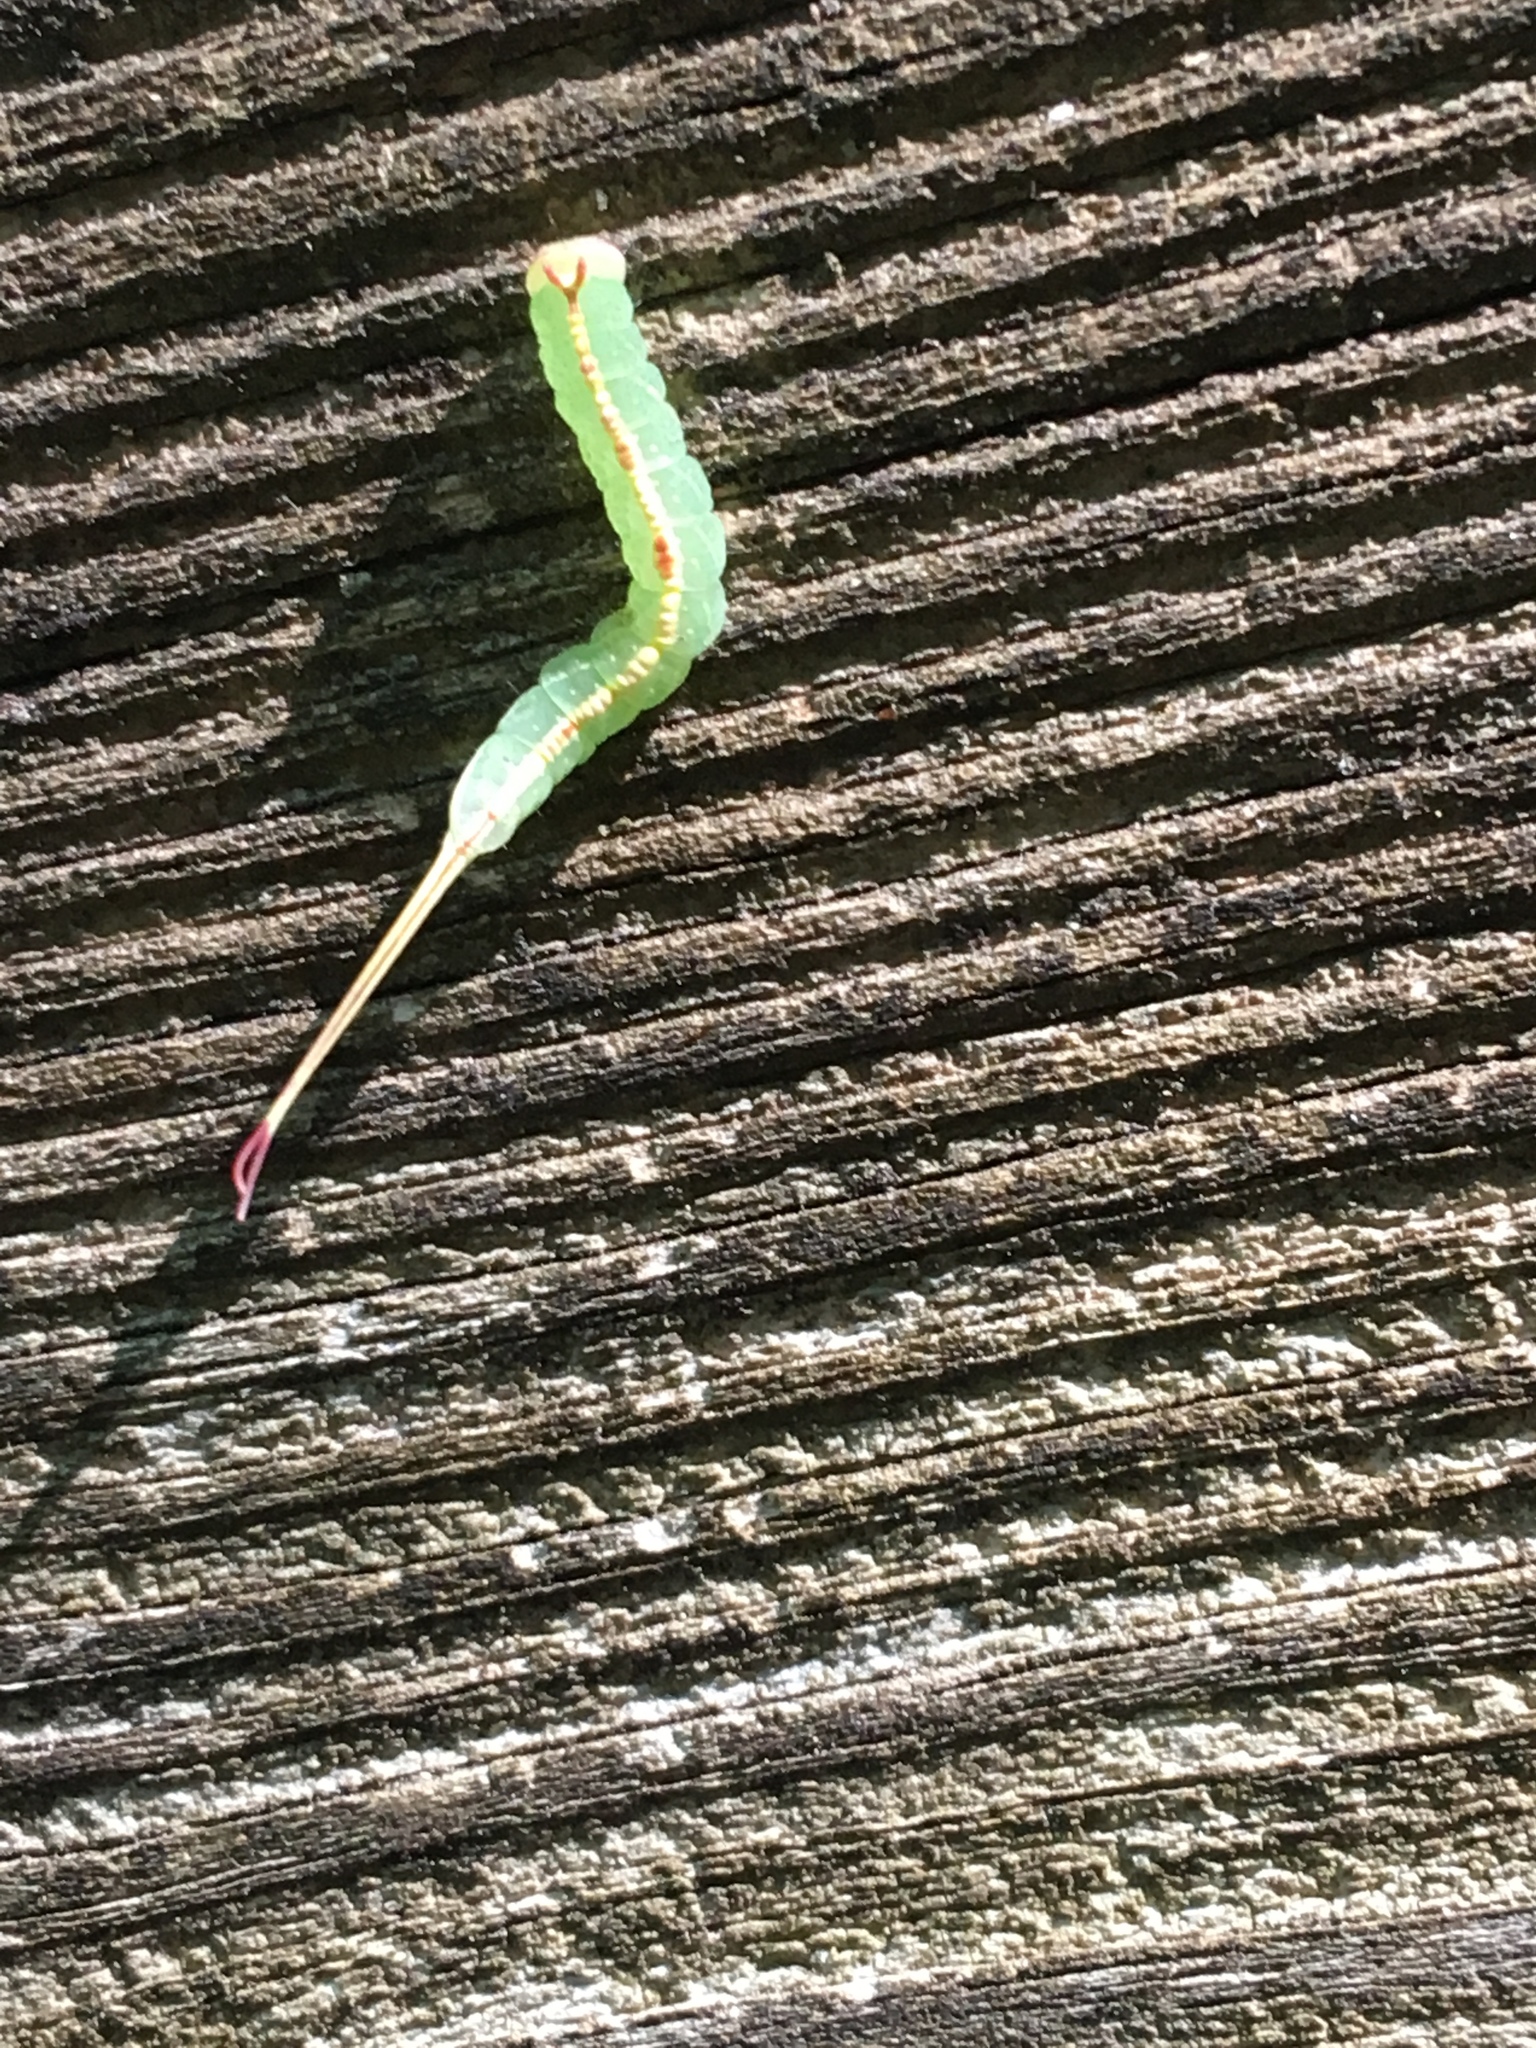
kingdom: Animalia
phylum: Arthropoda
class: Insecta
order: Lepidoptera
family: Notodontidae
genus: Macrurocampa
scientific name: Macrurocampa marthesia
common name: Mottled prominent
